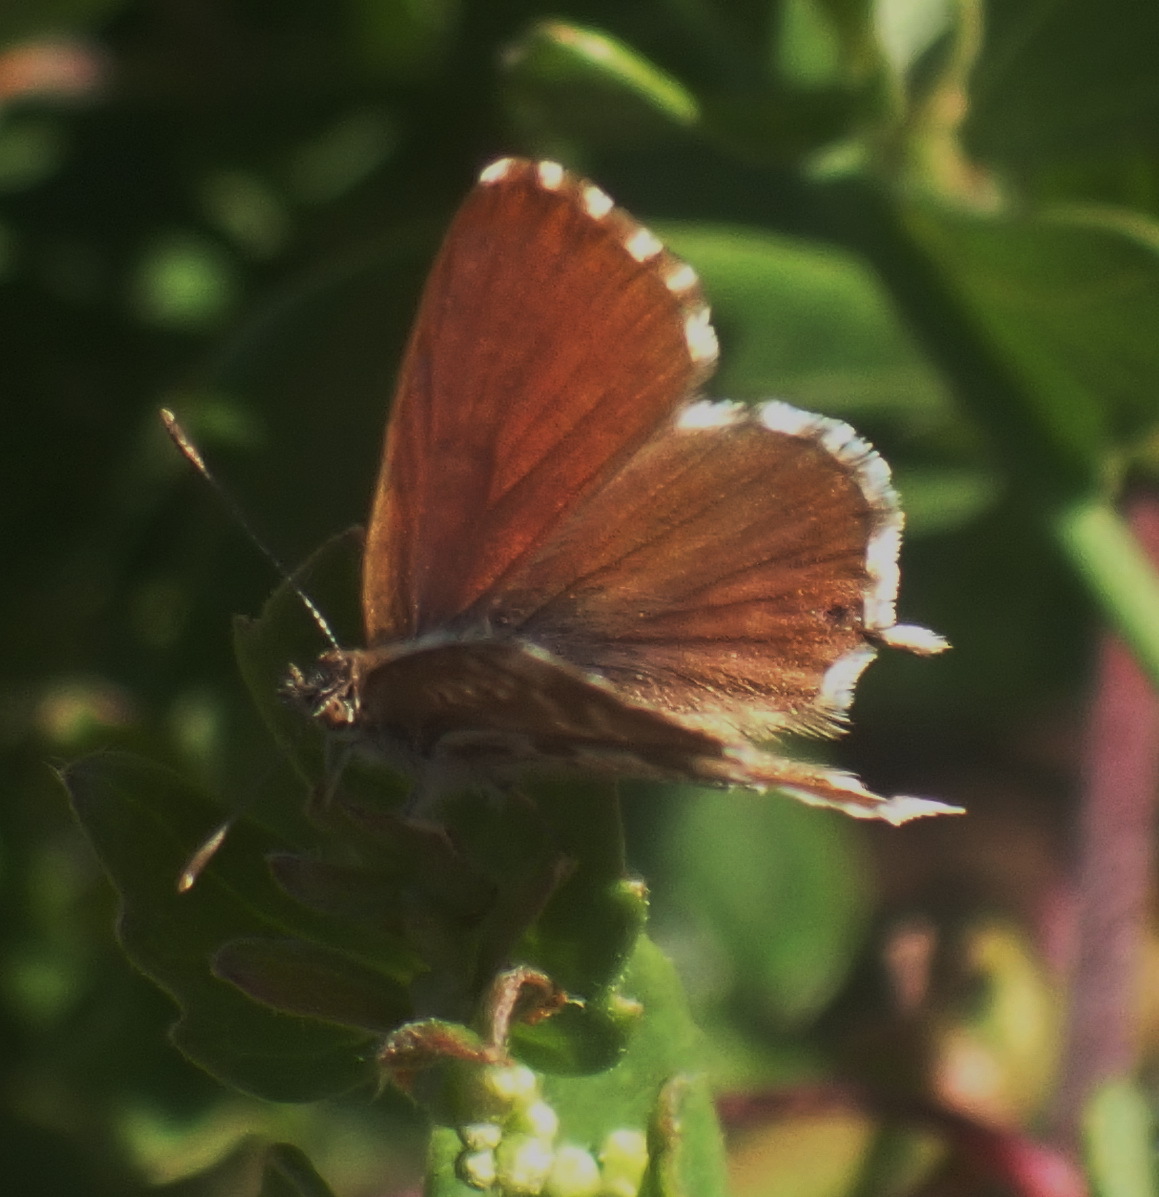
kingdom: Animalia
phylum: Arthropoda
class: Insecta
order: Lepidoptera
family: Lycaenidae
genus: Cacyreus
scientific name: Cacyreus marshalli
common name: Geranium bronze
